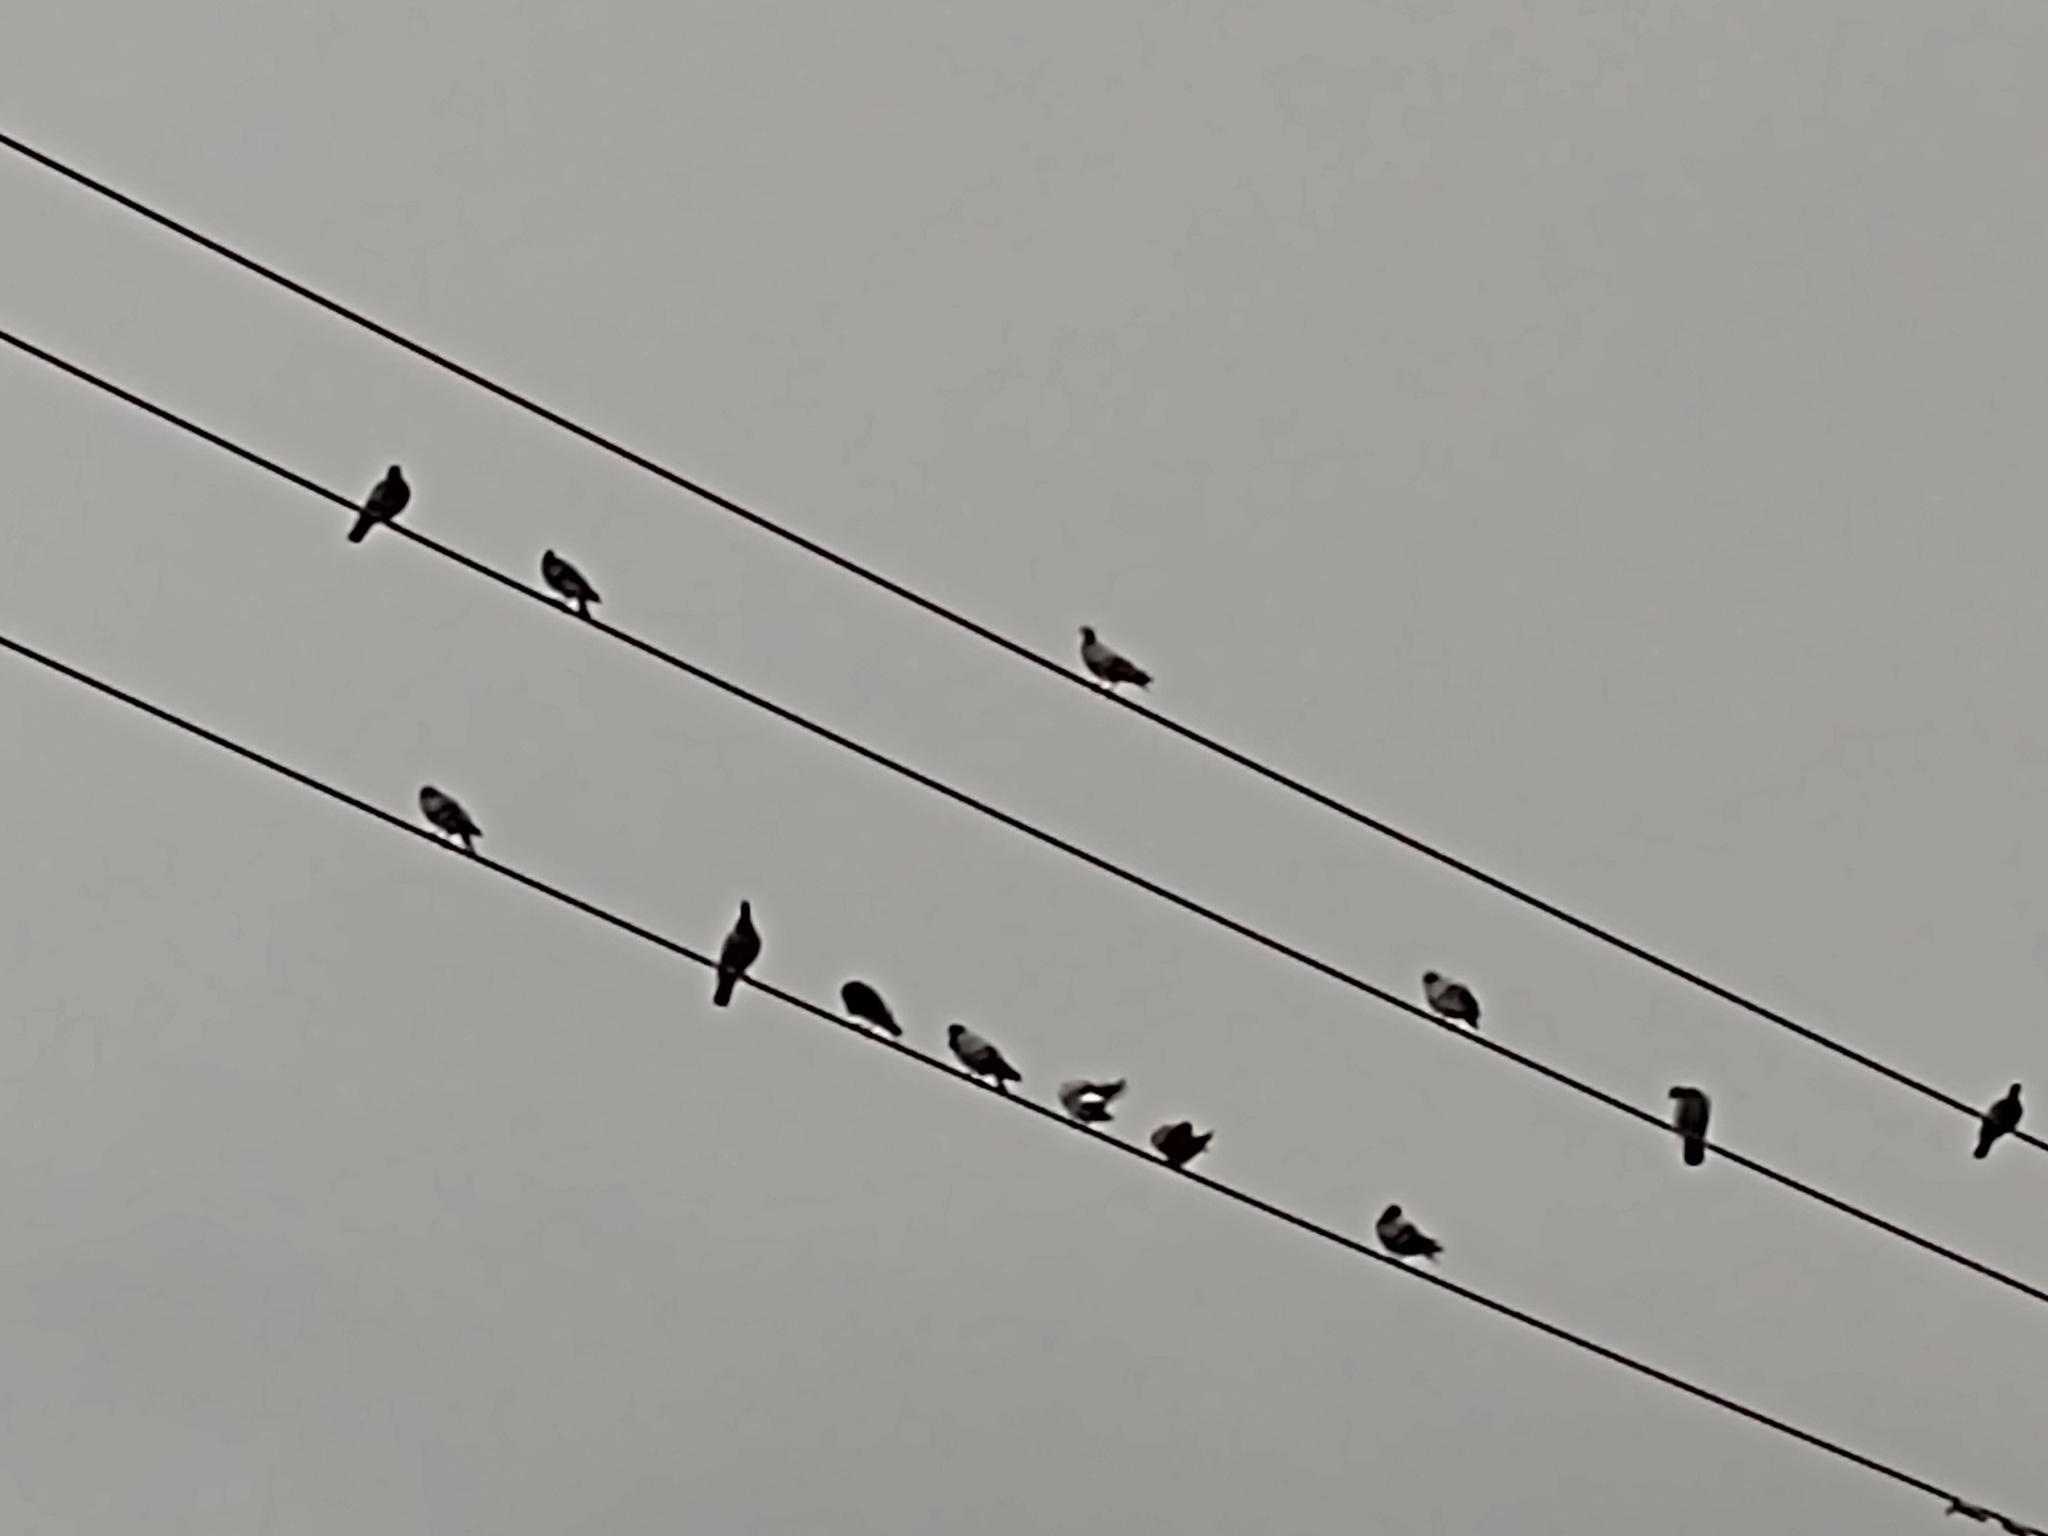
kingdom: Animalia
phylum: Chordata
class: Aves
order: Columbiformes
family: Columbidae
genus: Columba
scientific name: Columba livia
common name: Rock pigeon
